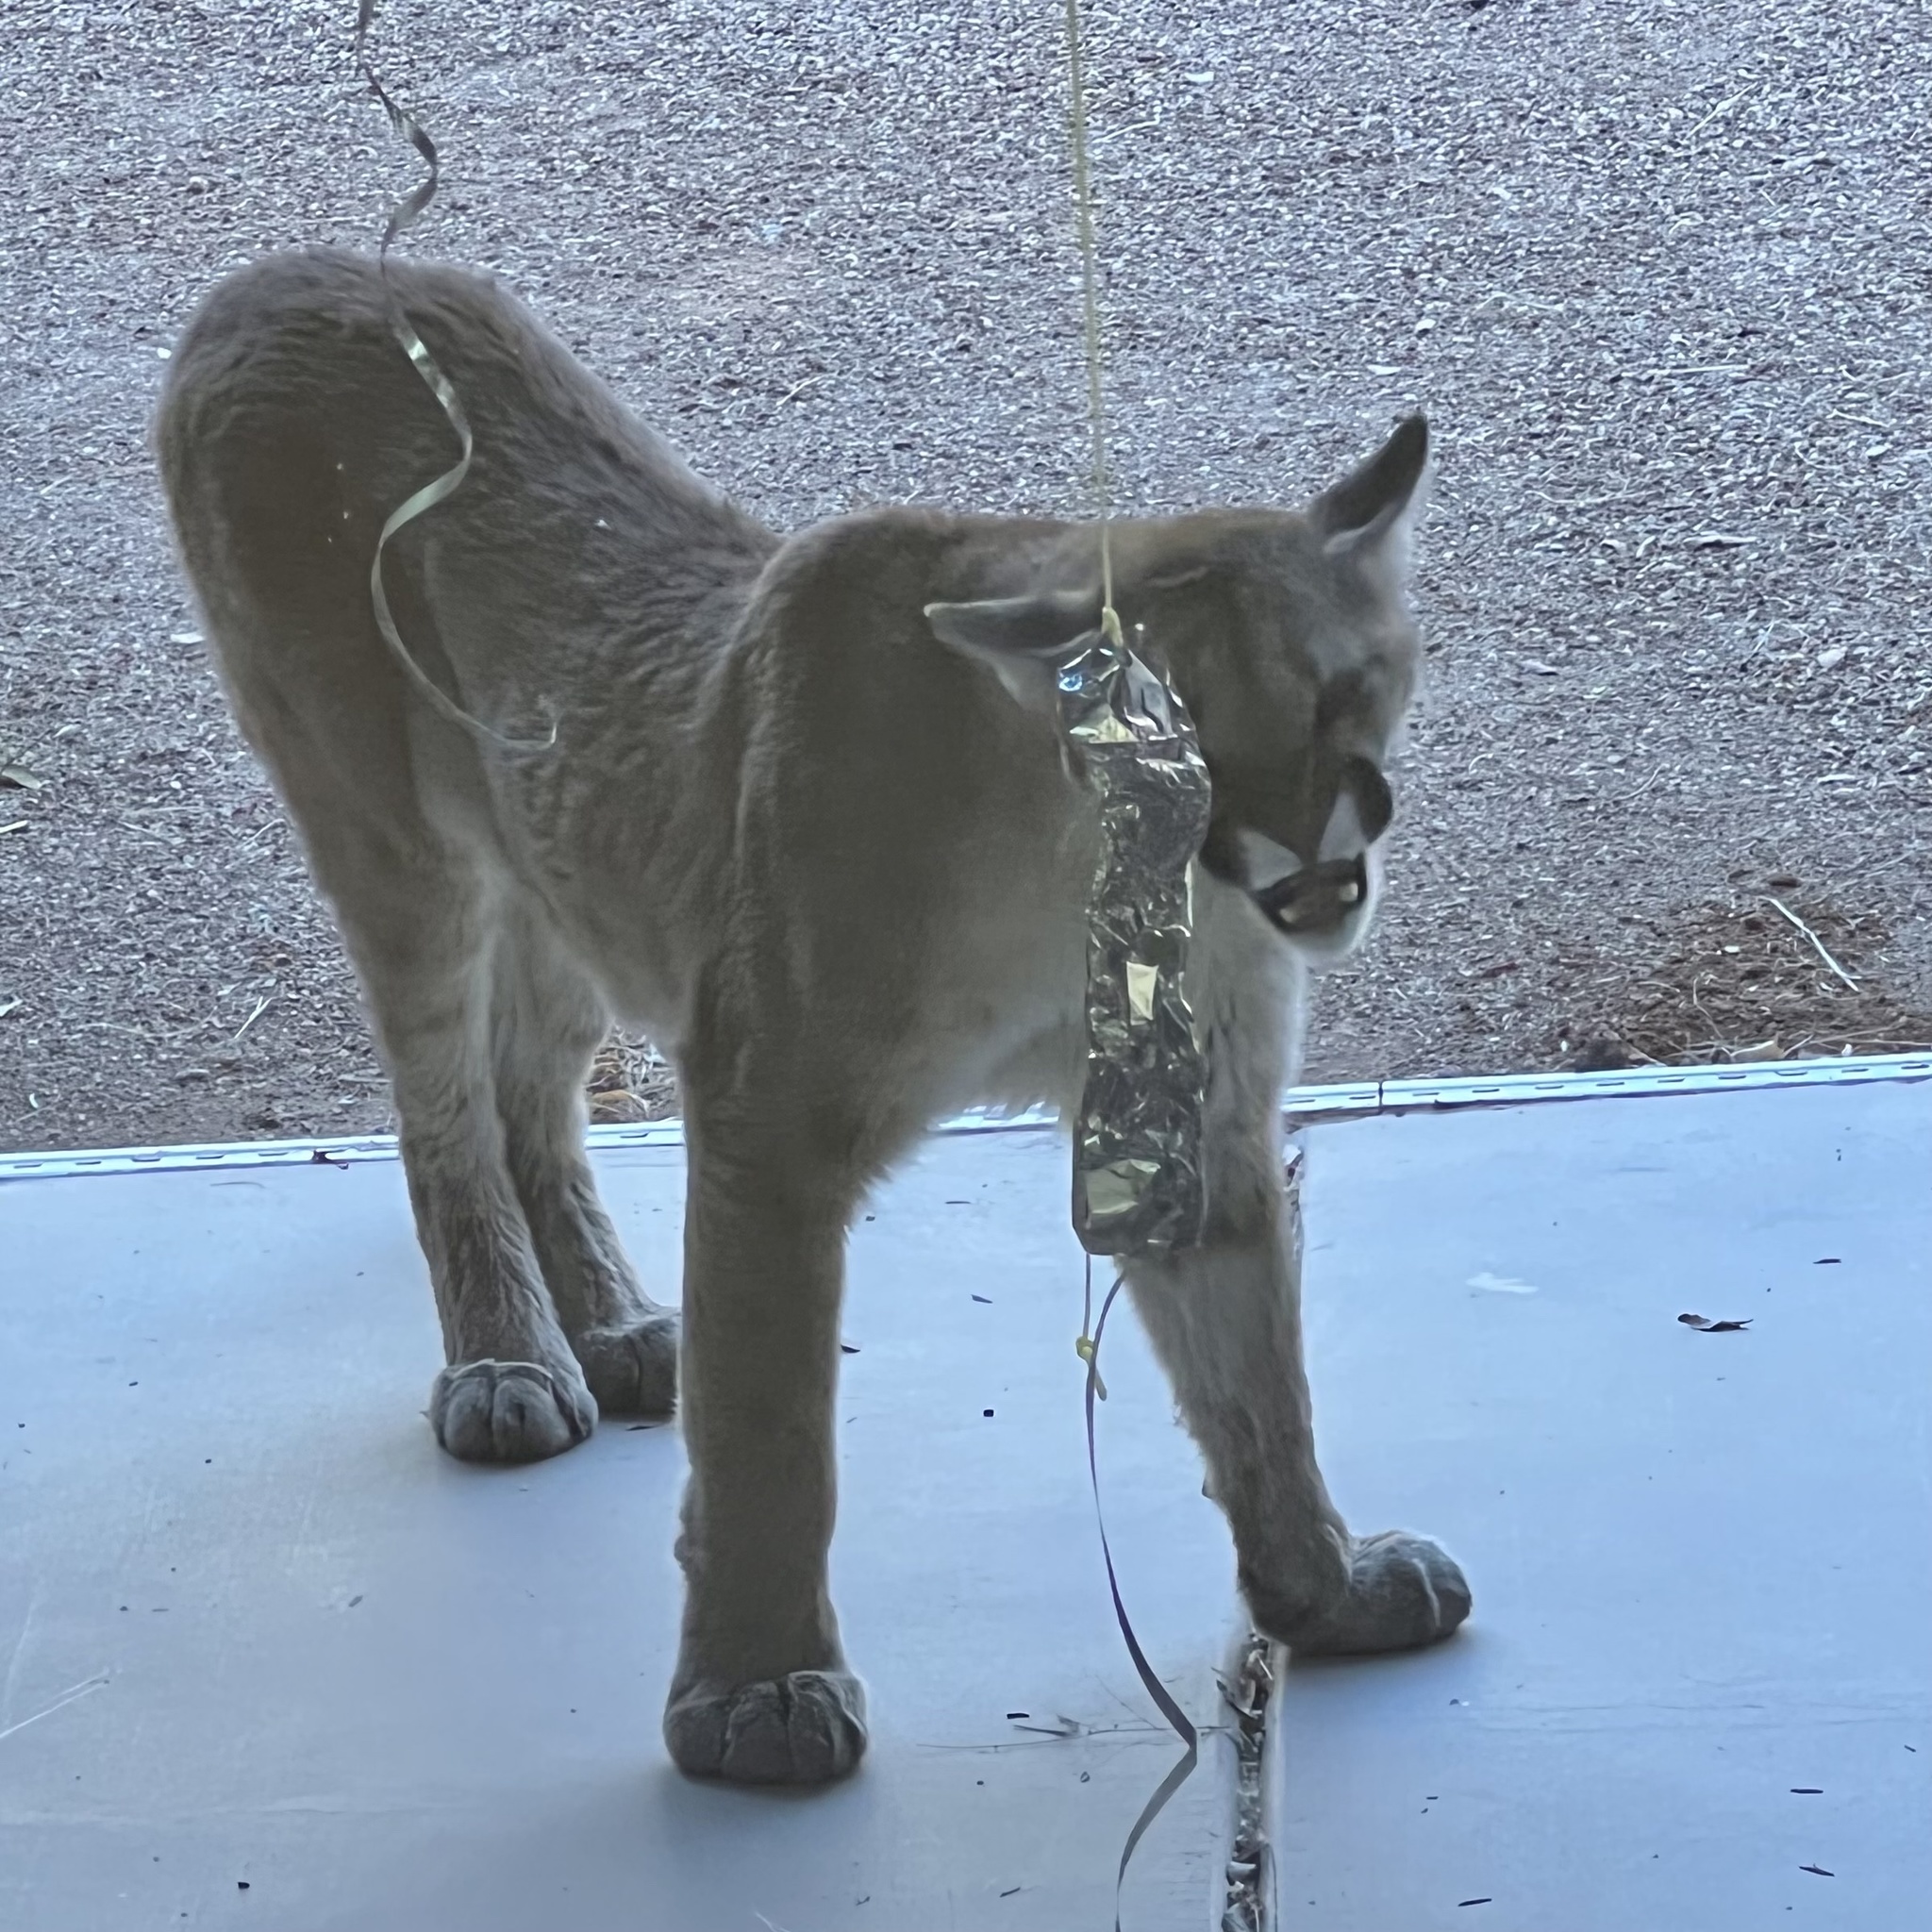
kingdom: Animalia
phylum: Chordata
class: Mammalia
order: Carnivora
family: Felidae
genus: Puma
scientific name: Puma concolor
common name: Puma
